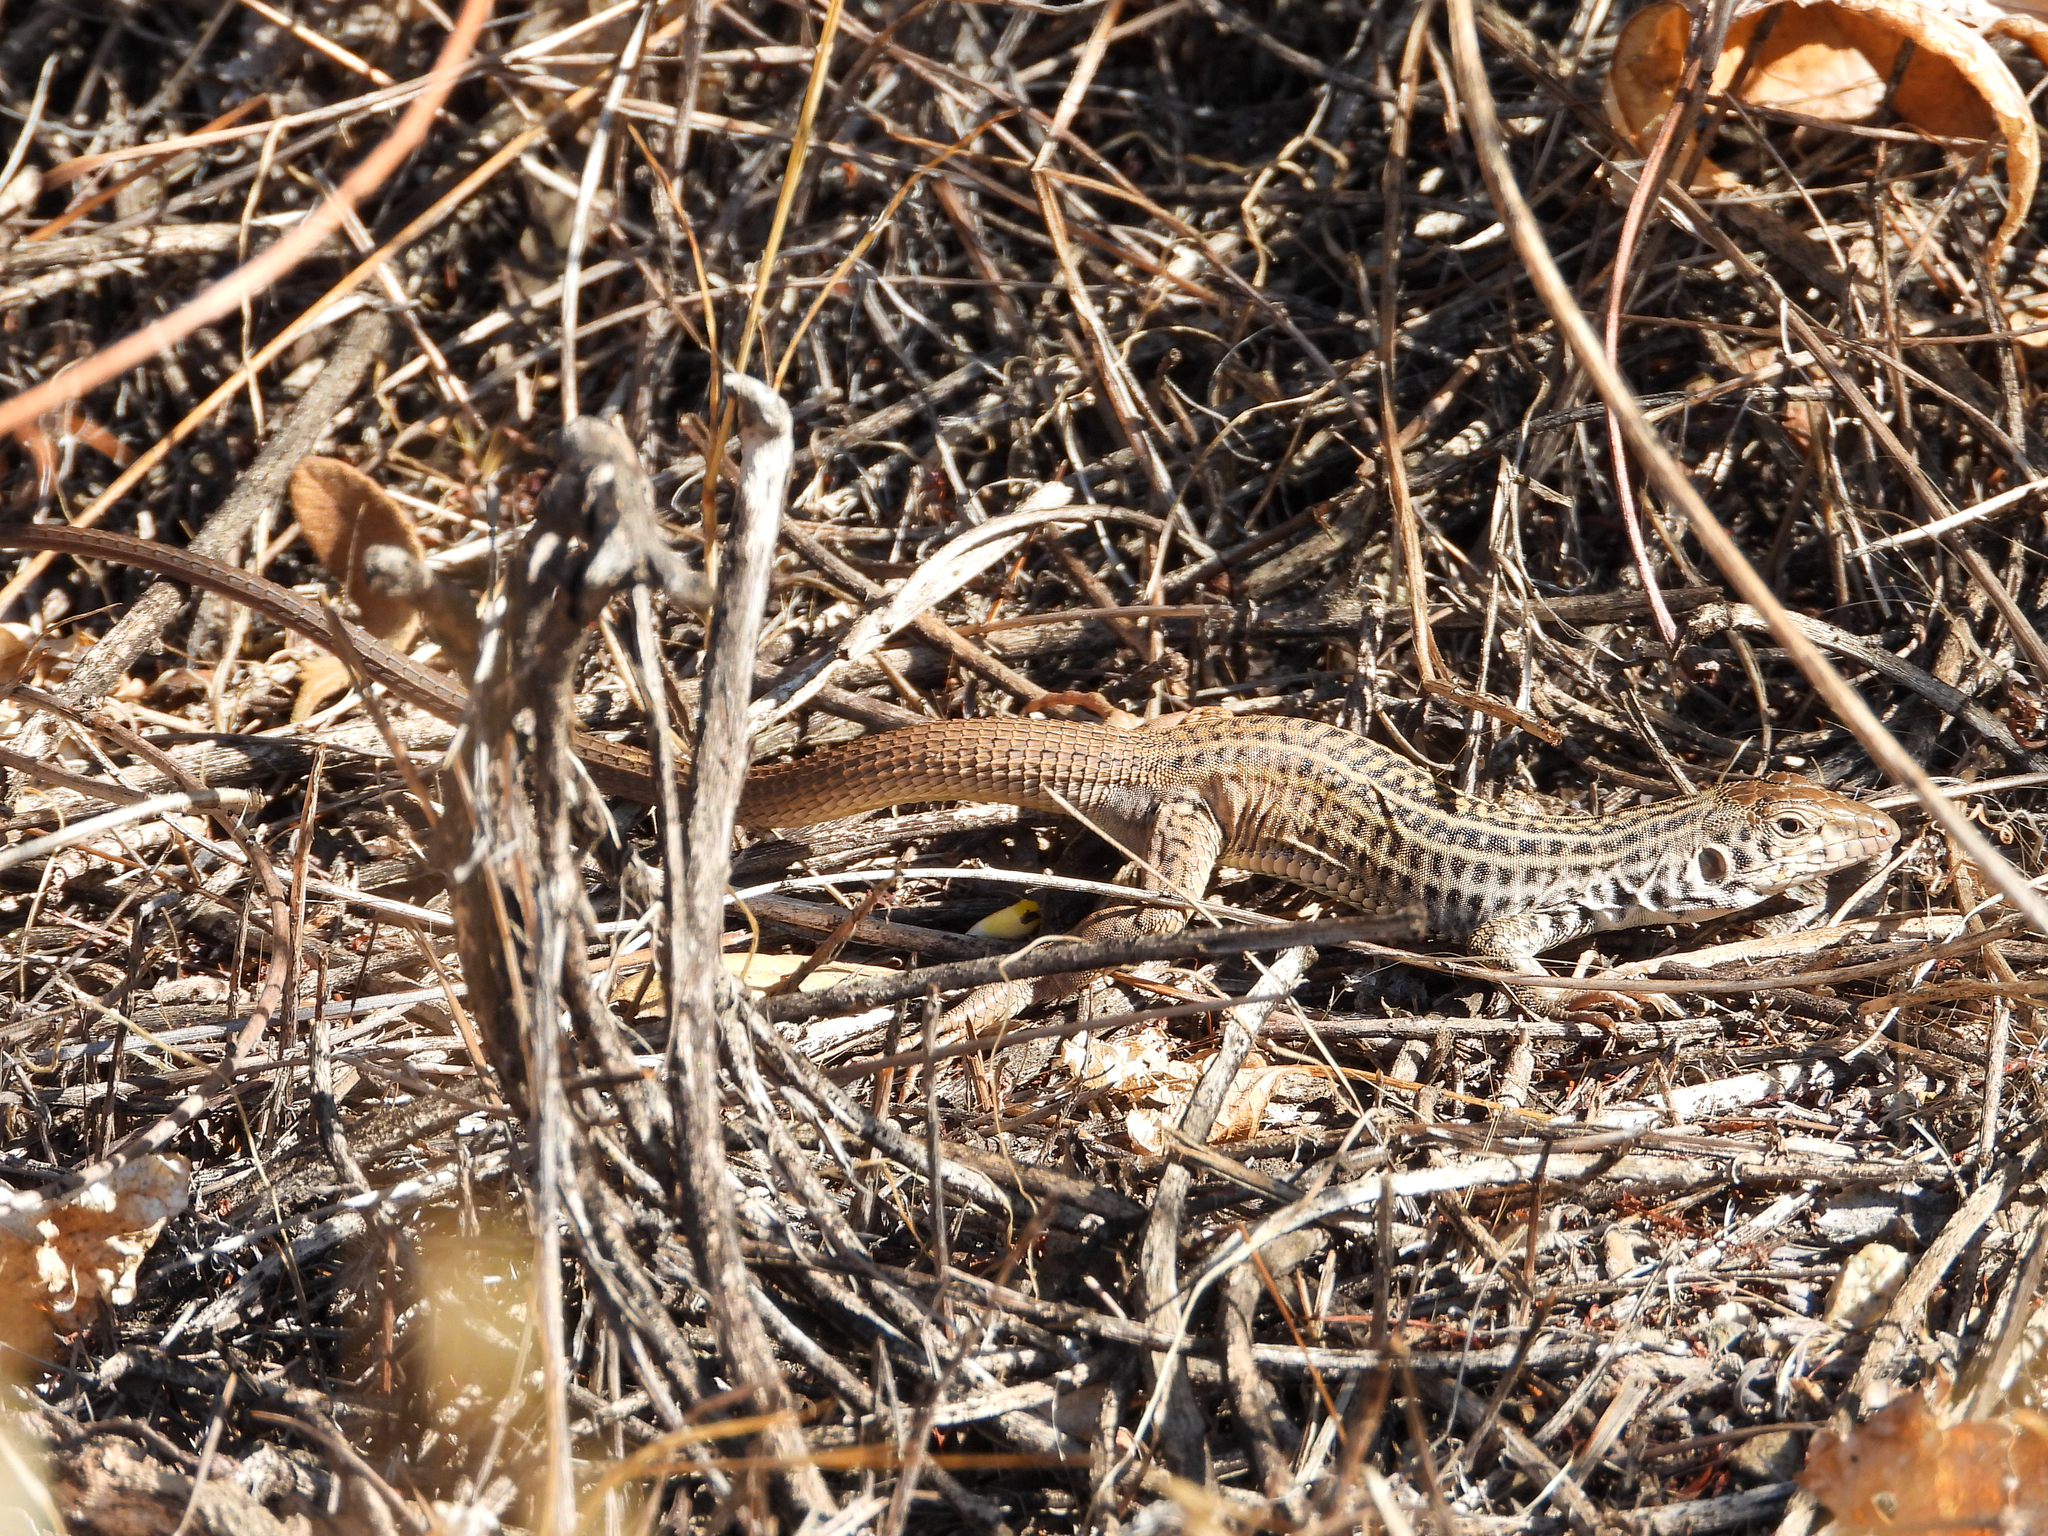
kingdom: Animalia
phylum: Chordata
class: Squamata
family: Teiidae
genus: Aspidoscelis
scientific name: Aspidoscelis tigris
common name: Tiger whiptail
